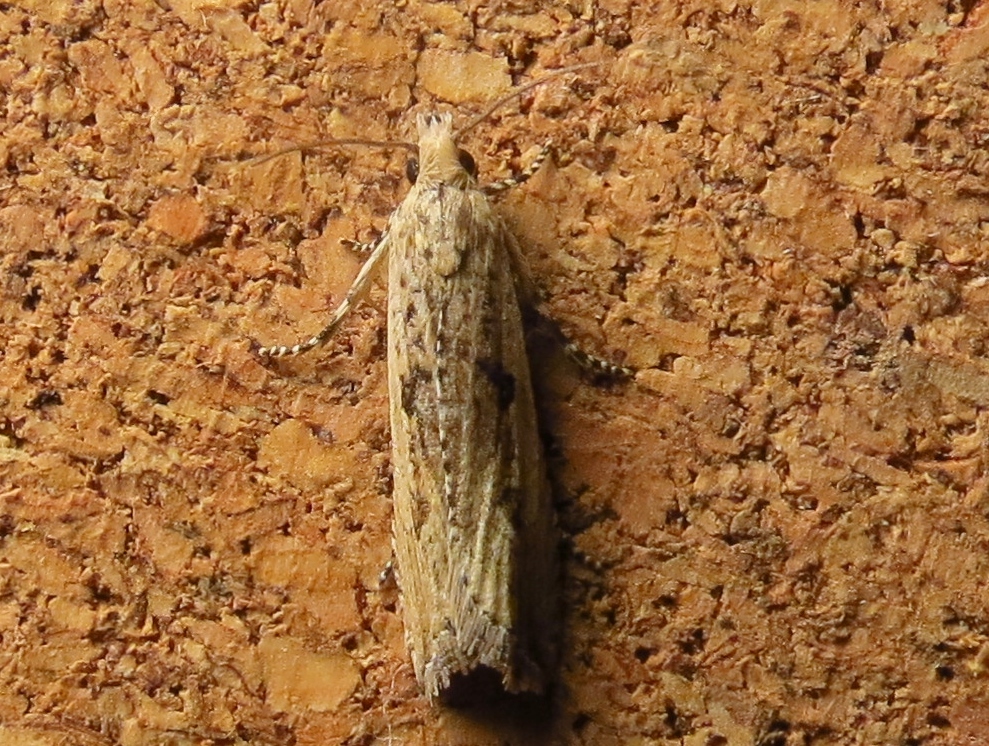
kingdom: Animalia
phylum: Arthropoda
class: Insecta
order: Lepidoptera
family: Tortricidae
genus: Bactra
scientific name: Bactra verutana
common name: Javelin moth
